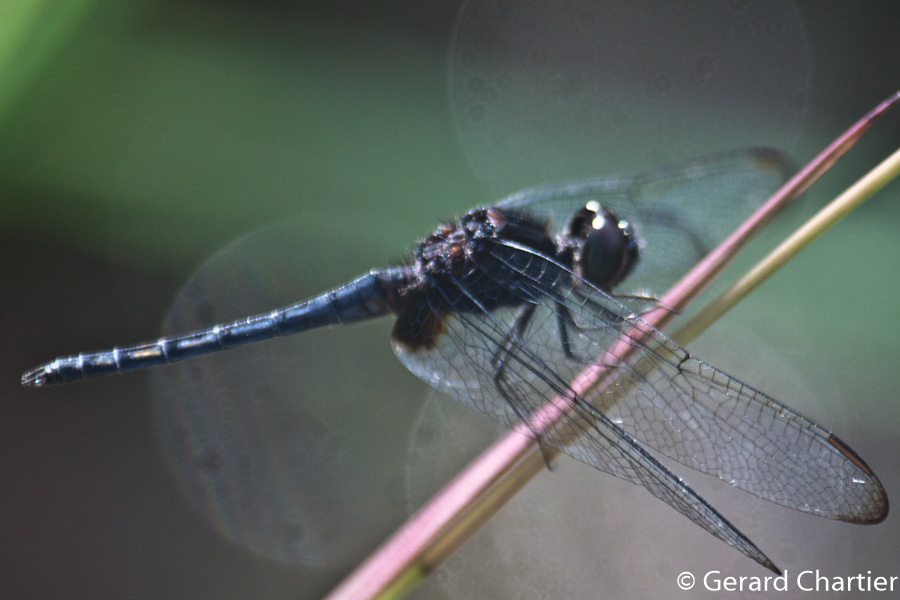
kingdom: Animalia
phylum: Arthropoda
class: Insecta
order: Odonata
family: Libellulidae
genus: Indothemis
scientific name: Indothemis limbata
